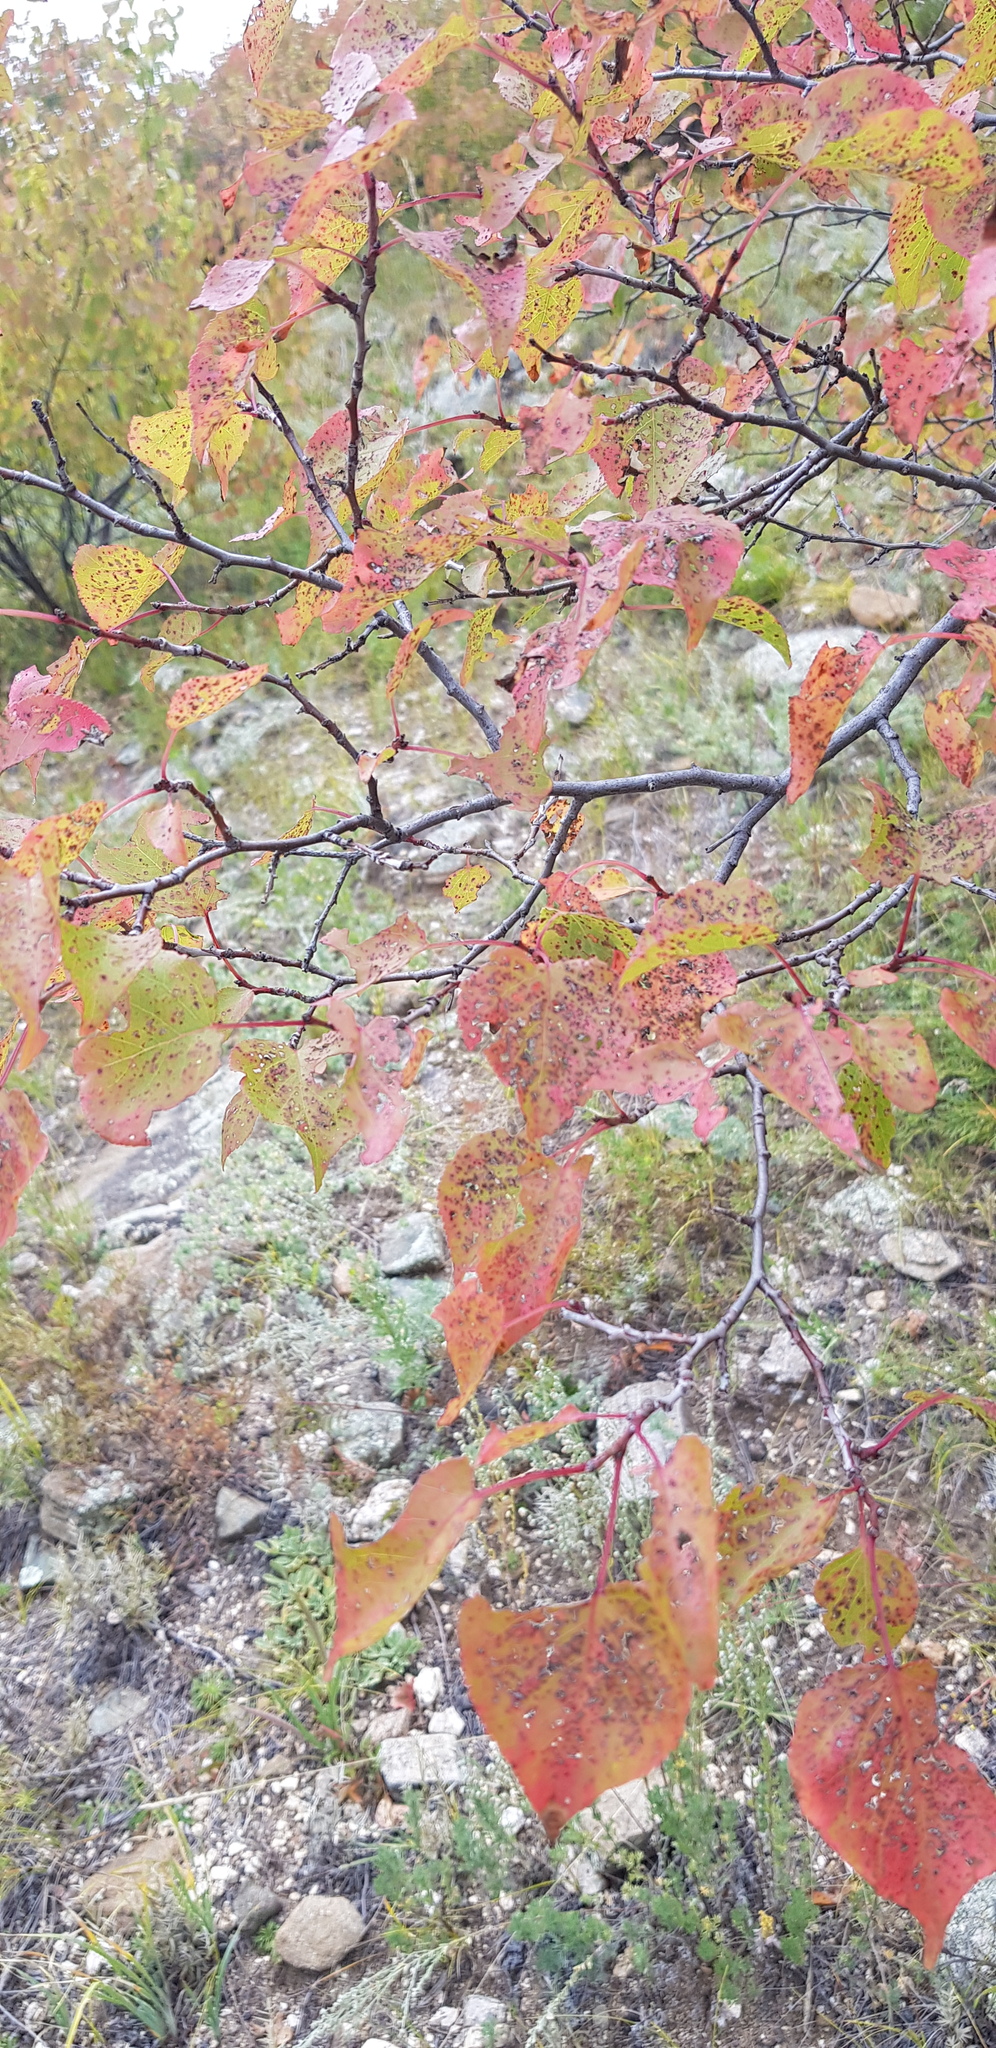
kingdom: Plantae
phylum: Tracheophyta
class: Magnoliopsida
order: Rosales
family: Rosaceae
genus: Prunus
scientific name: Prunus sibirica
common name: Siberian apricot
